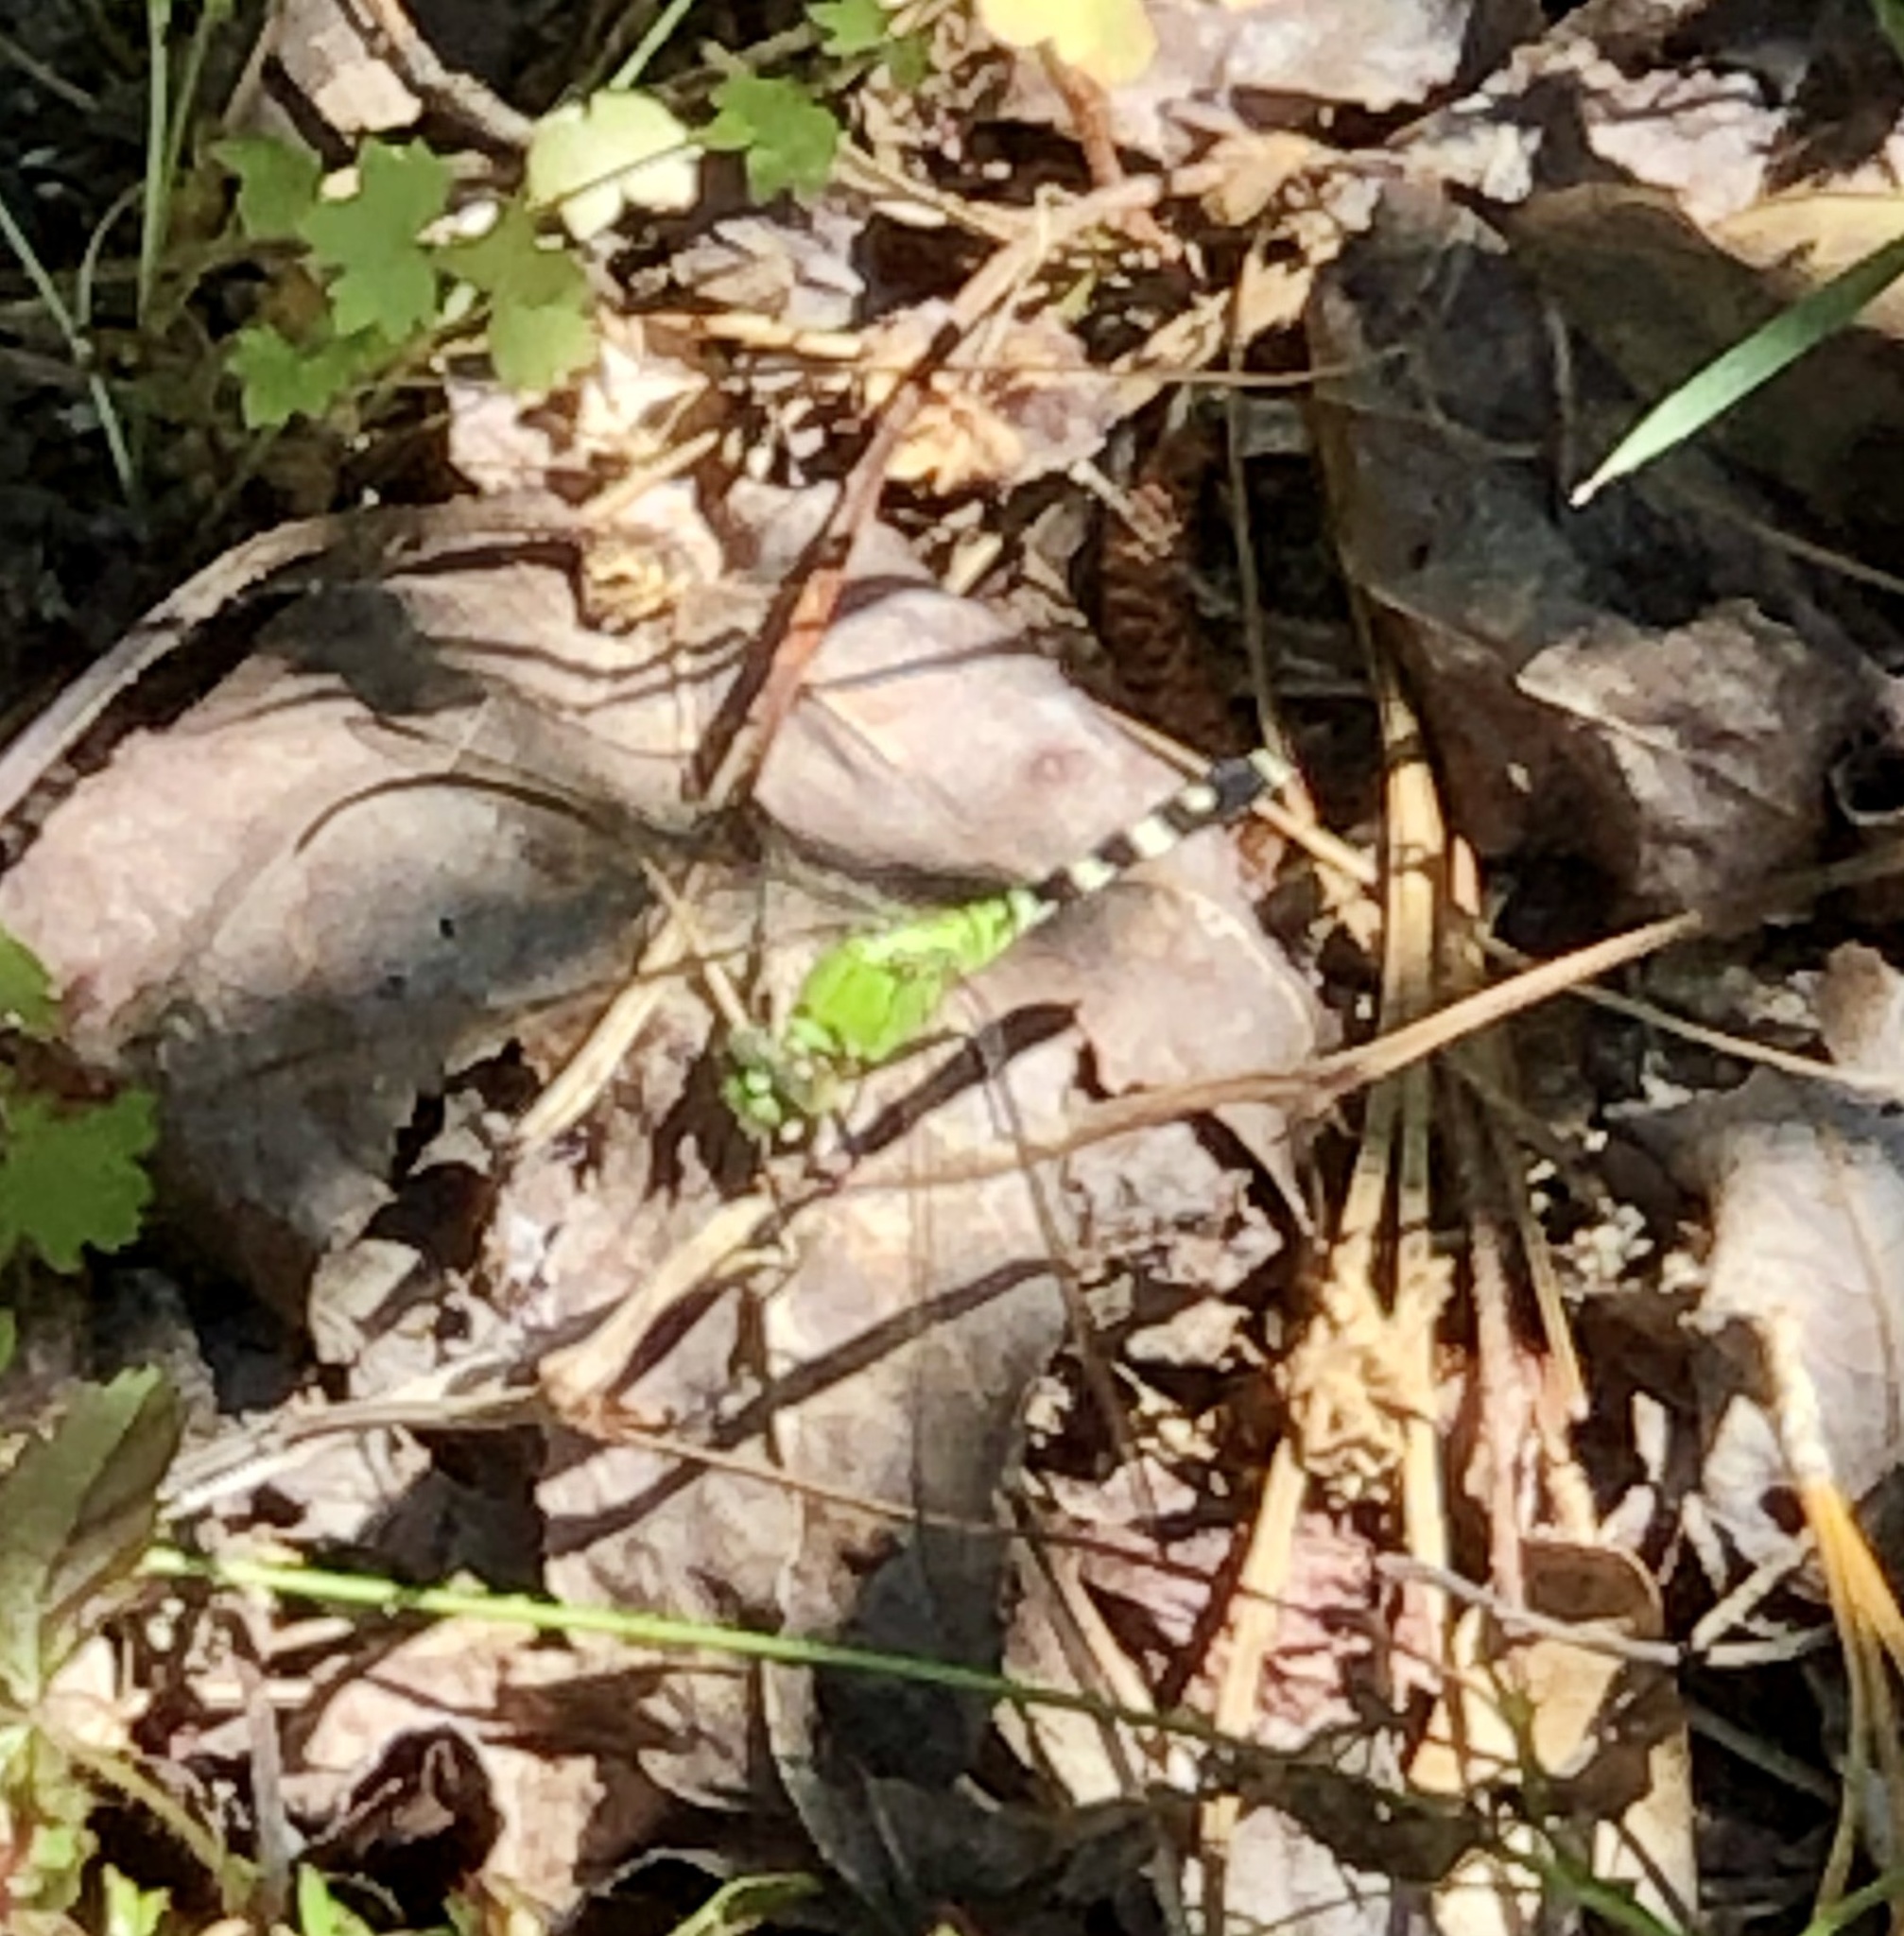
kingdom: Animalia
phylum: Arthropoda
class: Insecta
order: Odonata
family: Libellulidae
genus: Erythemis
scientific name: Erythemis simplicicollis
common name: Eastern pondhawk
